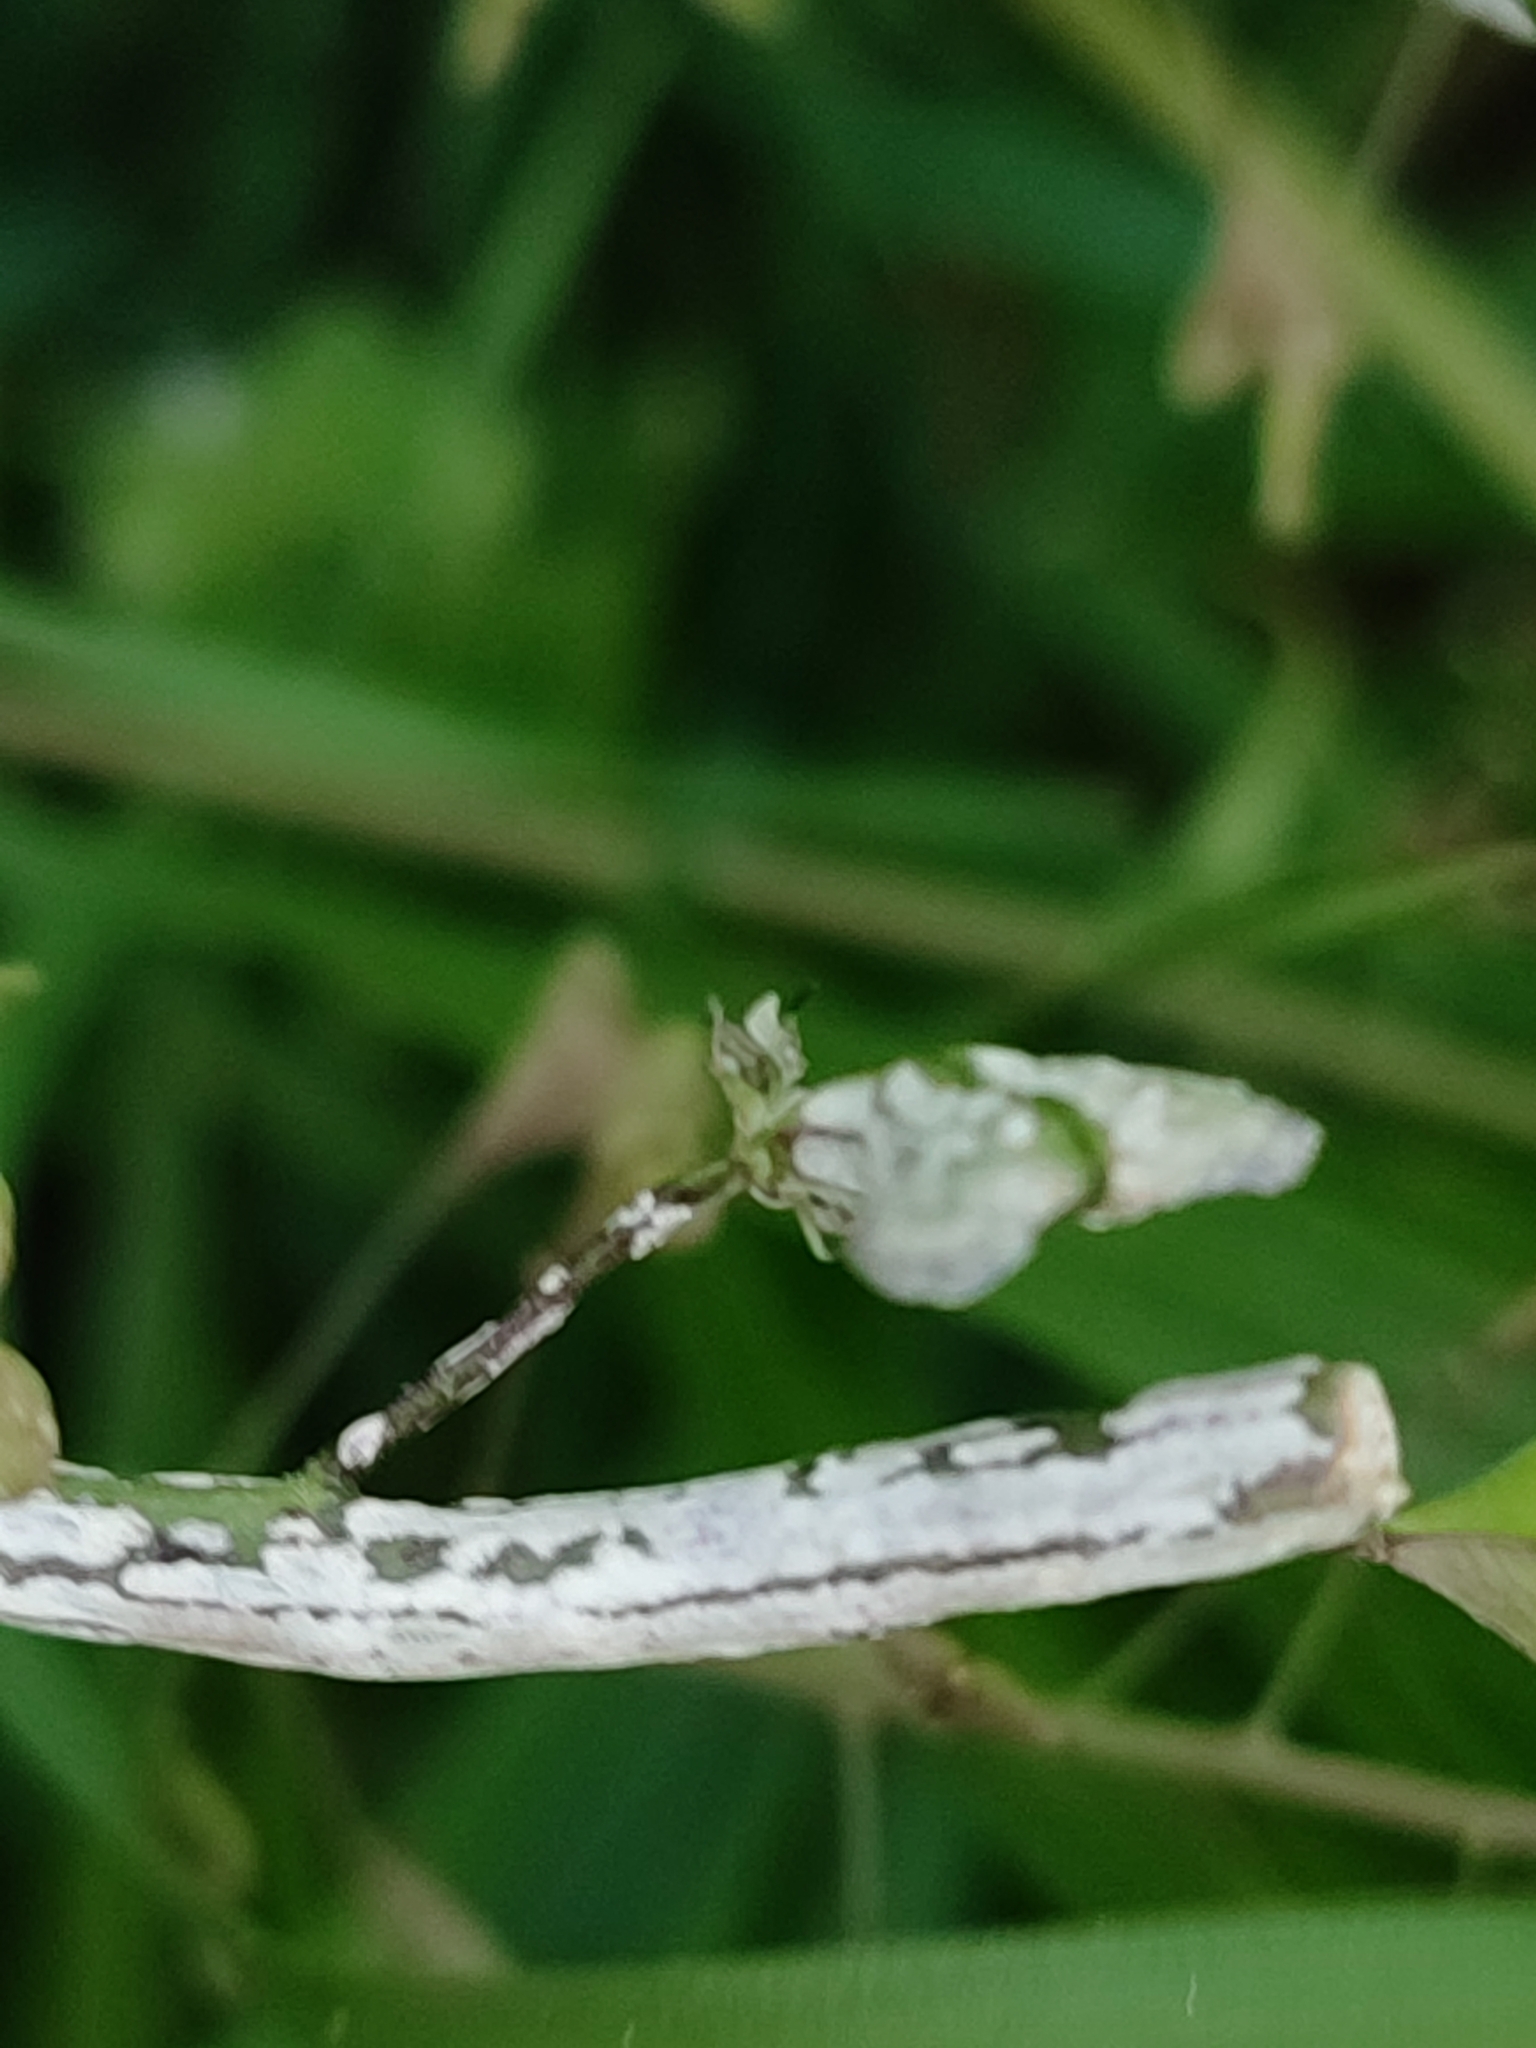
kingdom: Chromista
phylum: Oomycota
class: Peronosporea
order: Albuginales
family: Albuginaceae
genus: Albugo
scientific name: Albugo candida
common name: Crucifer white blister
